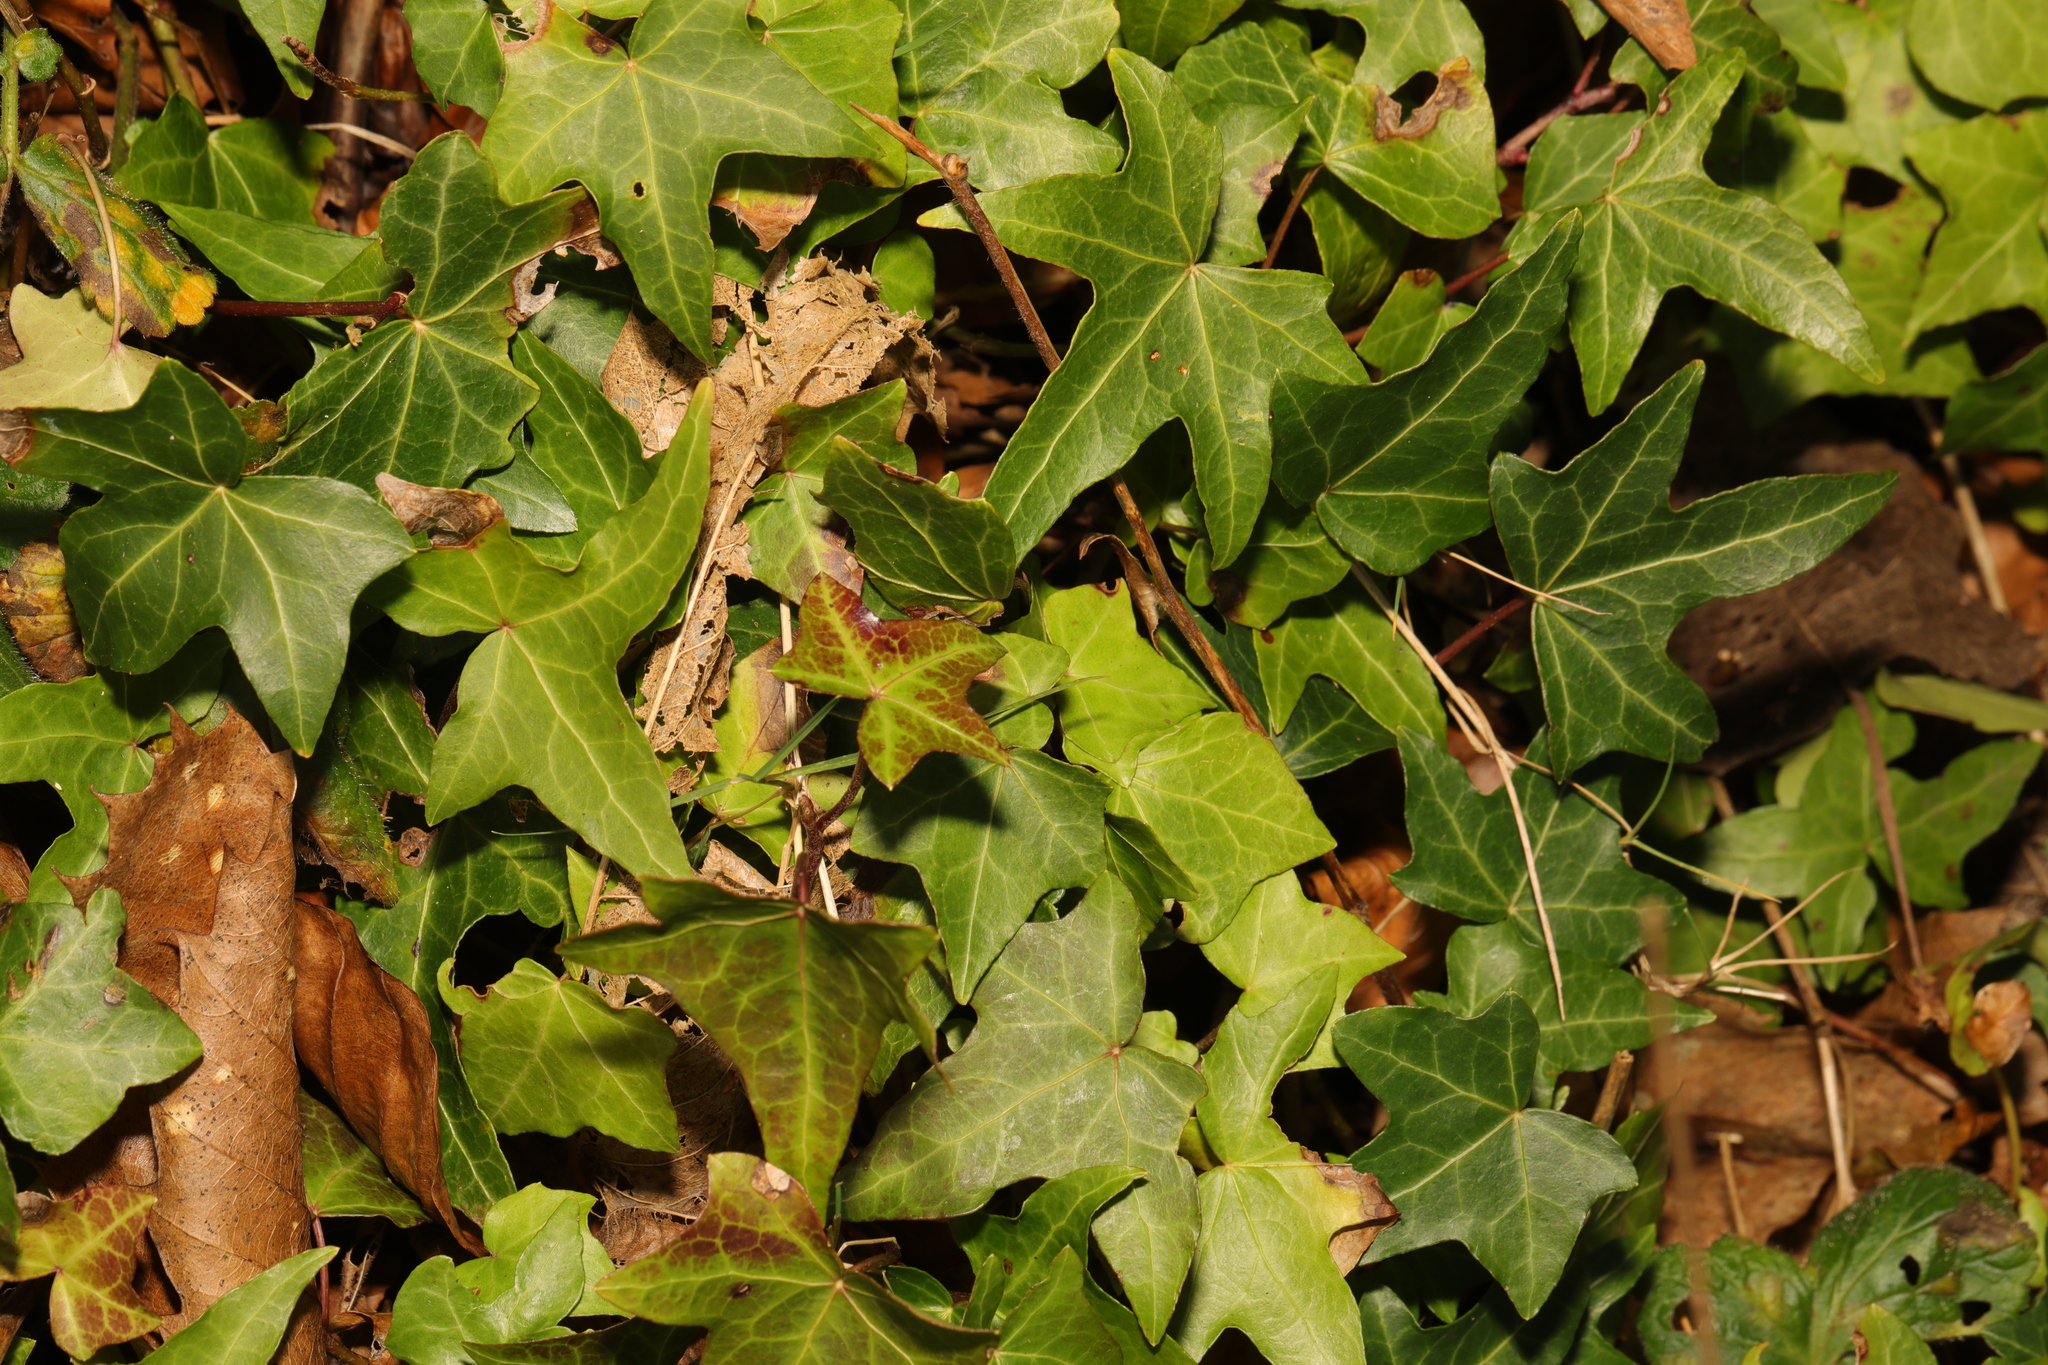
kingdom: Plantae
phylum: Tracheophyta
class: Magnoliopsida
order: Apiales
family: Araliaceae
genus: Hedera
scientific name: Hedera helix
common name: Ivy
